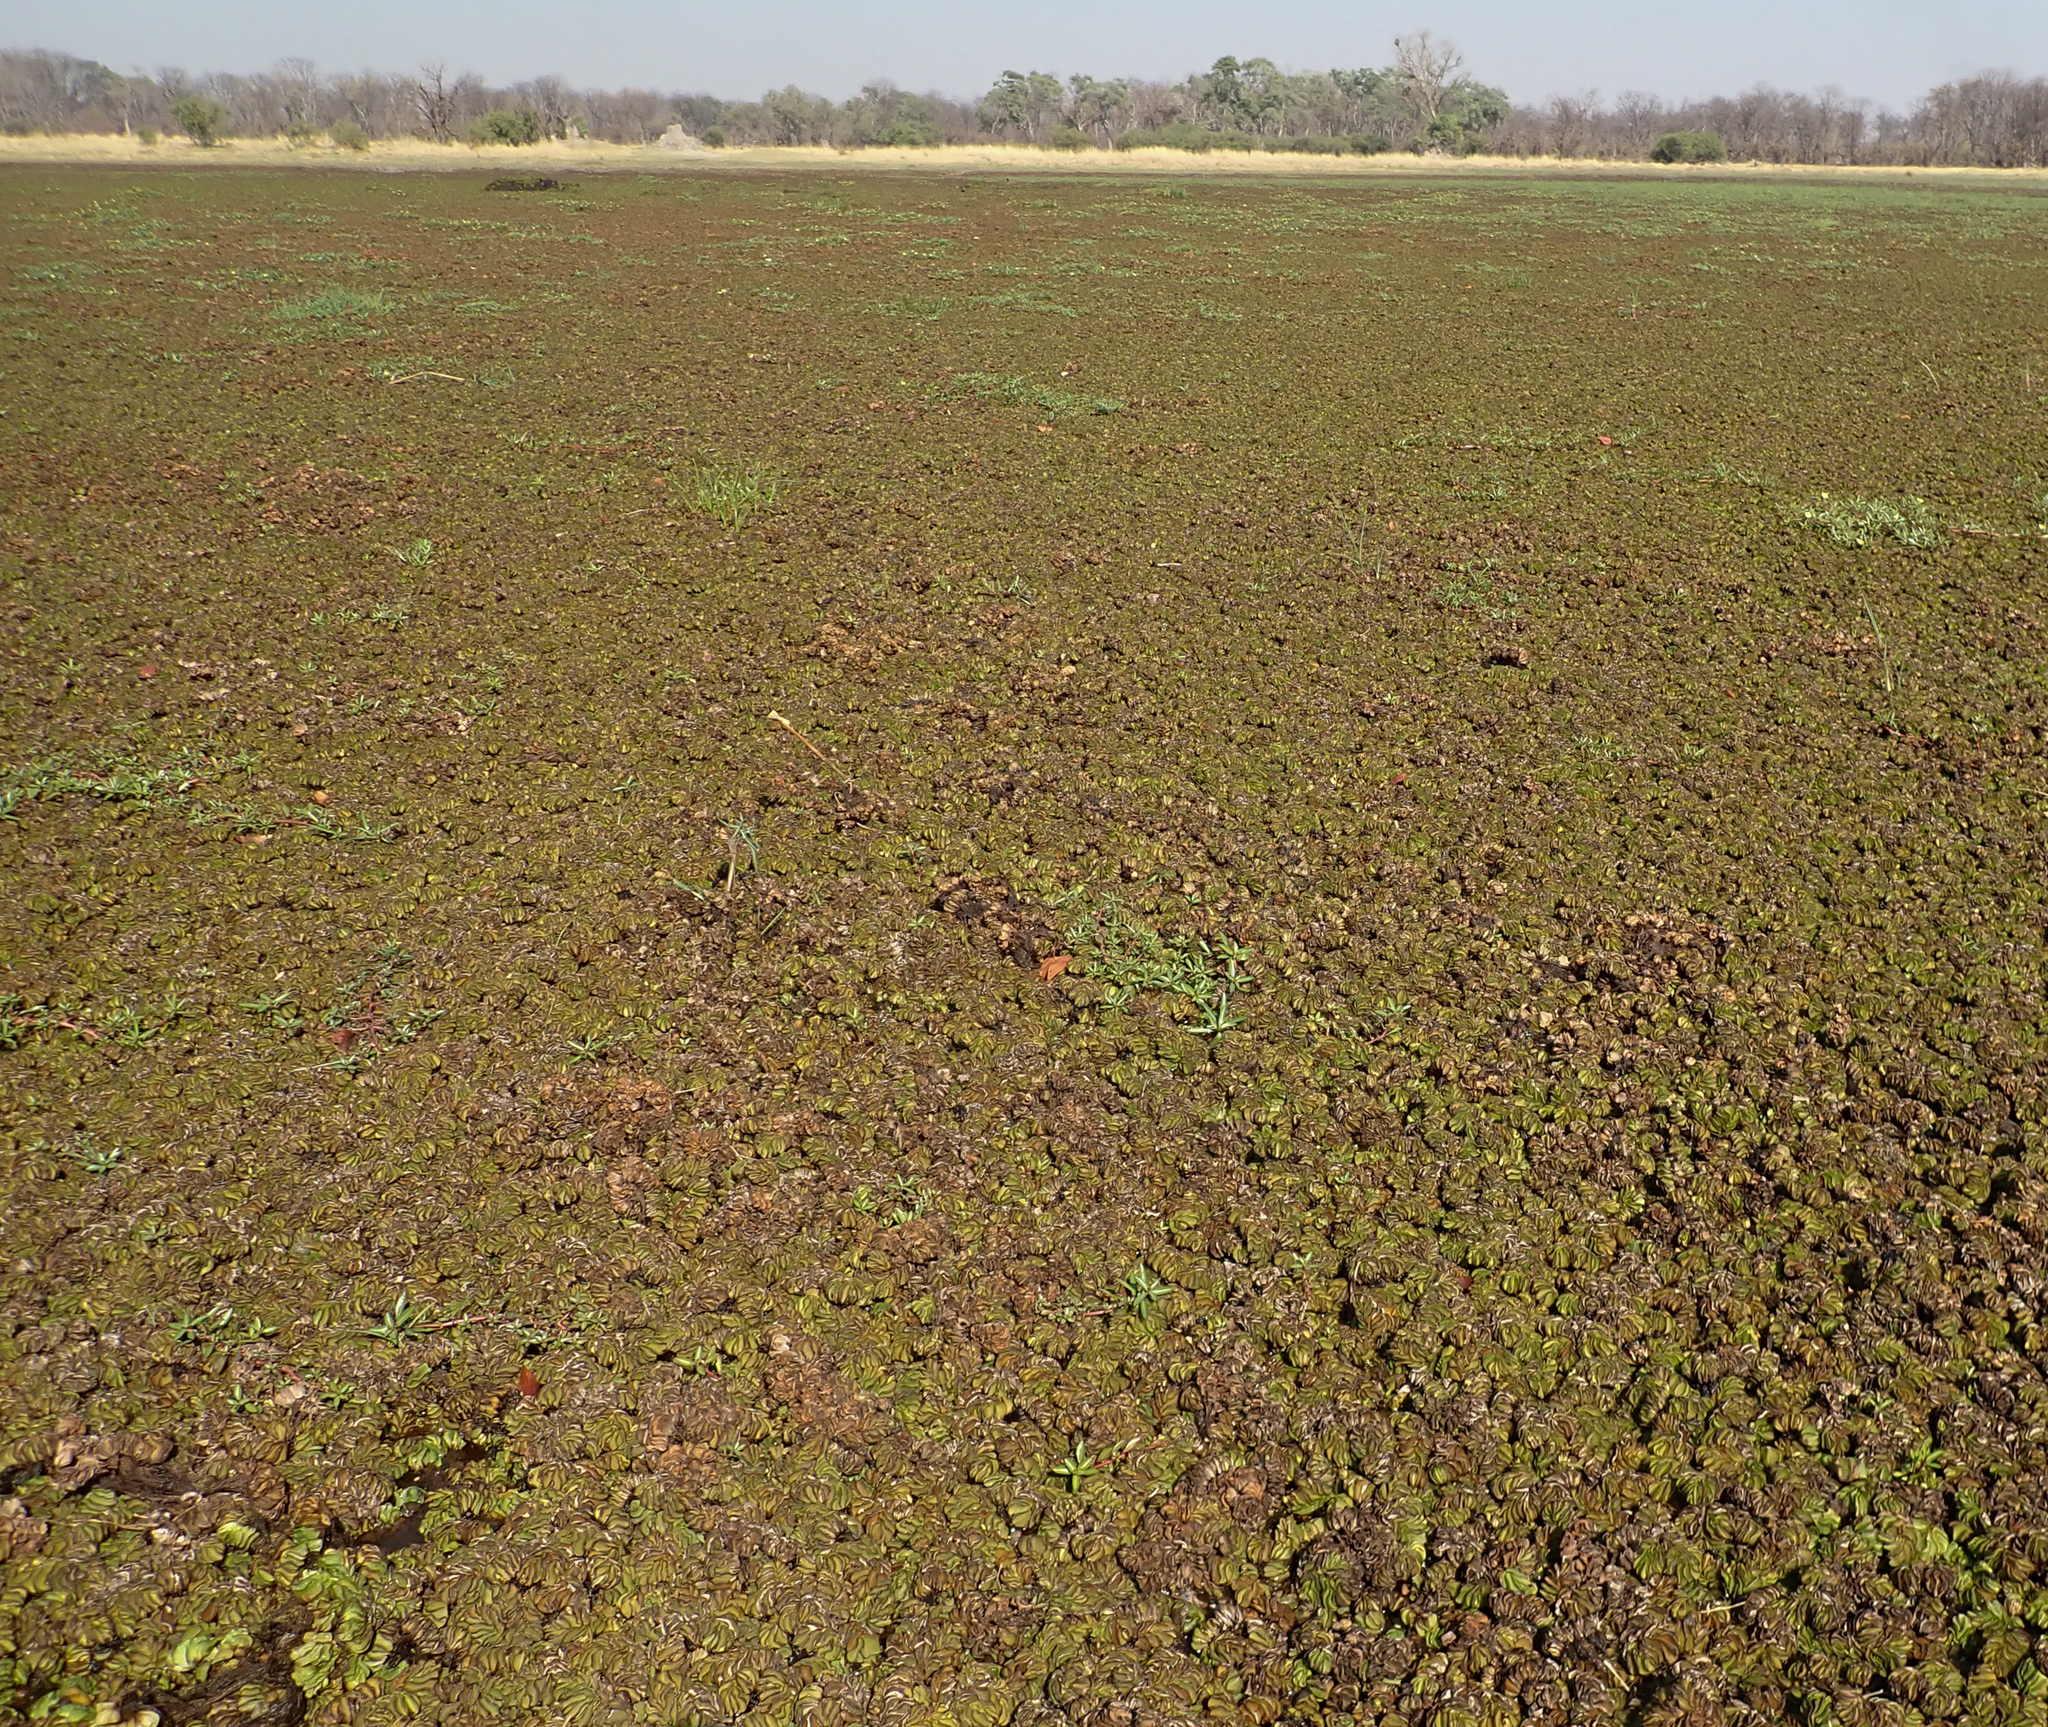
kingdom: Plantae
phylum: Tracheophyta
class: Polypodiopsida
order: Salviniales
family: Salviniaceae
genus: Salvinia
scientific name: Salvinia molesta
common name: Kariba weed
